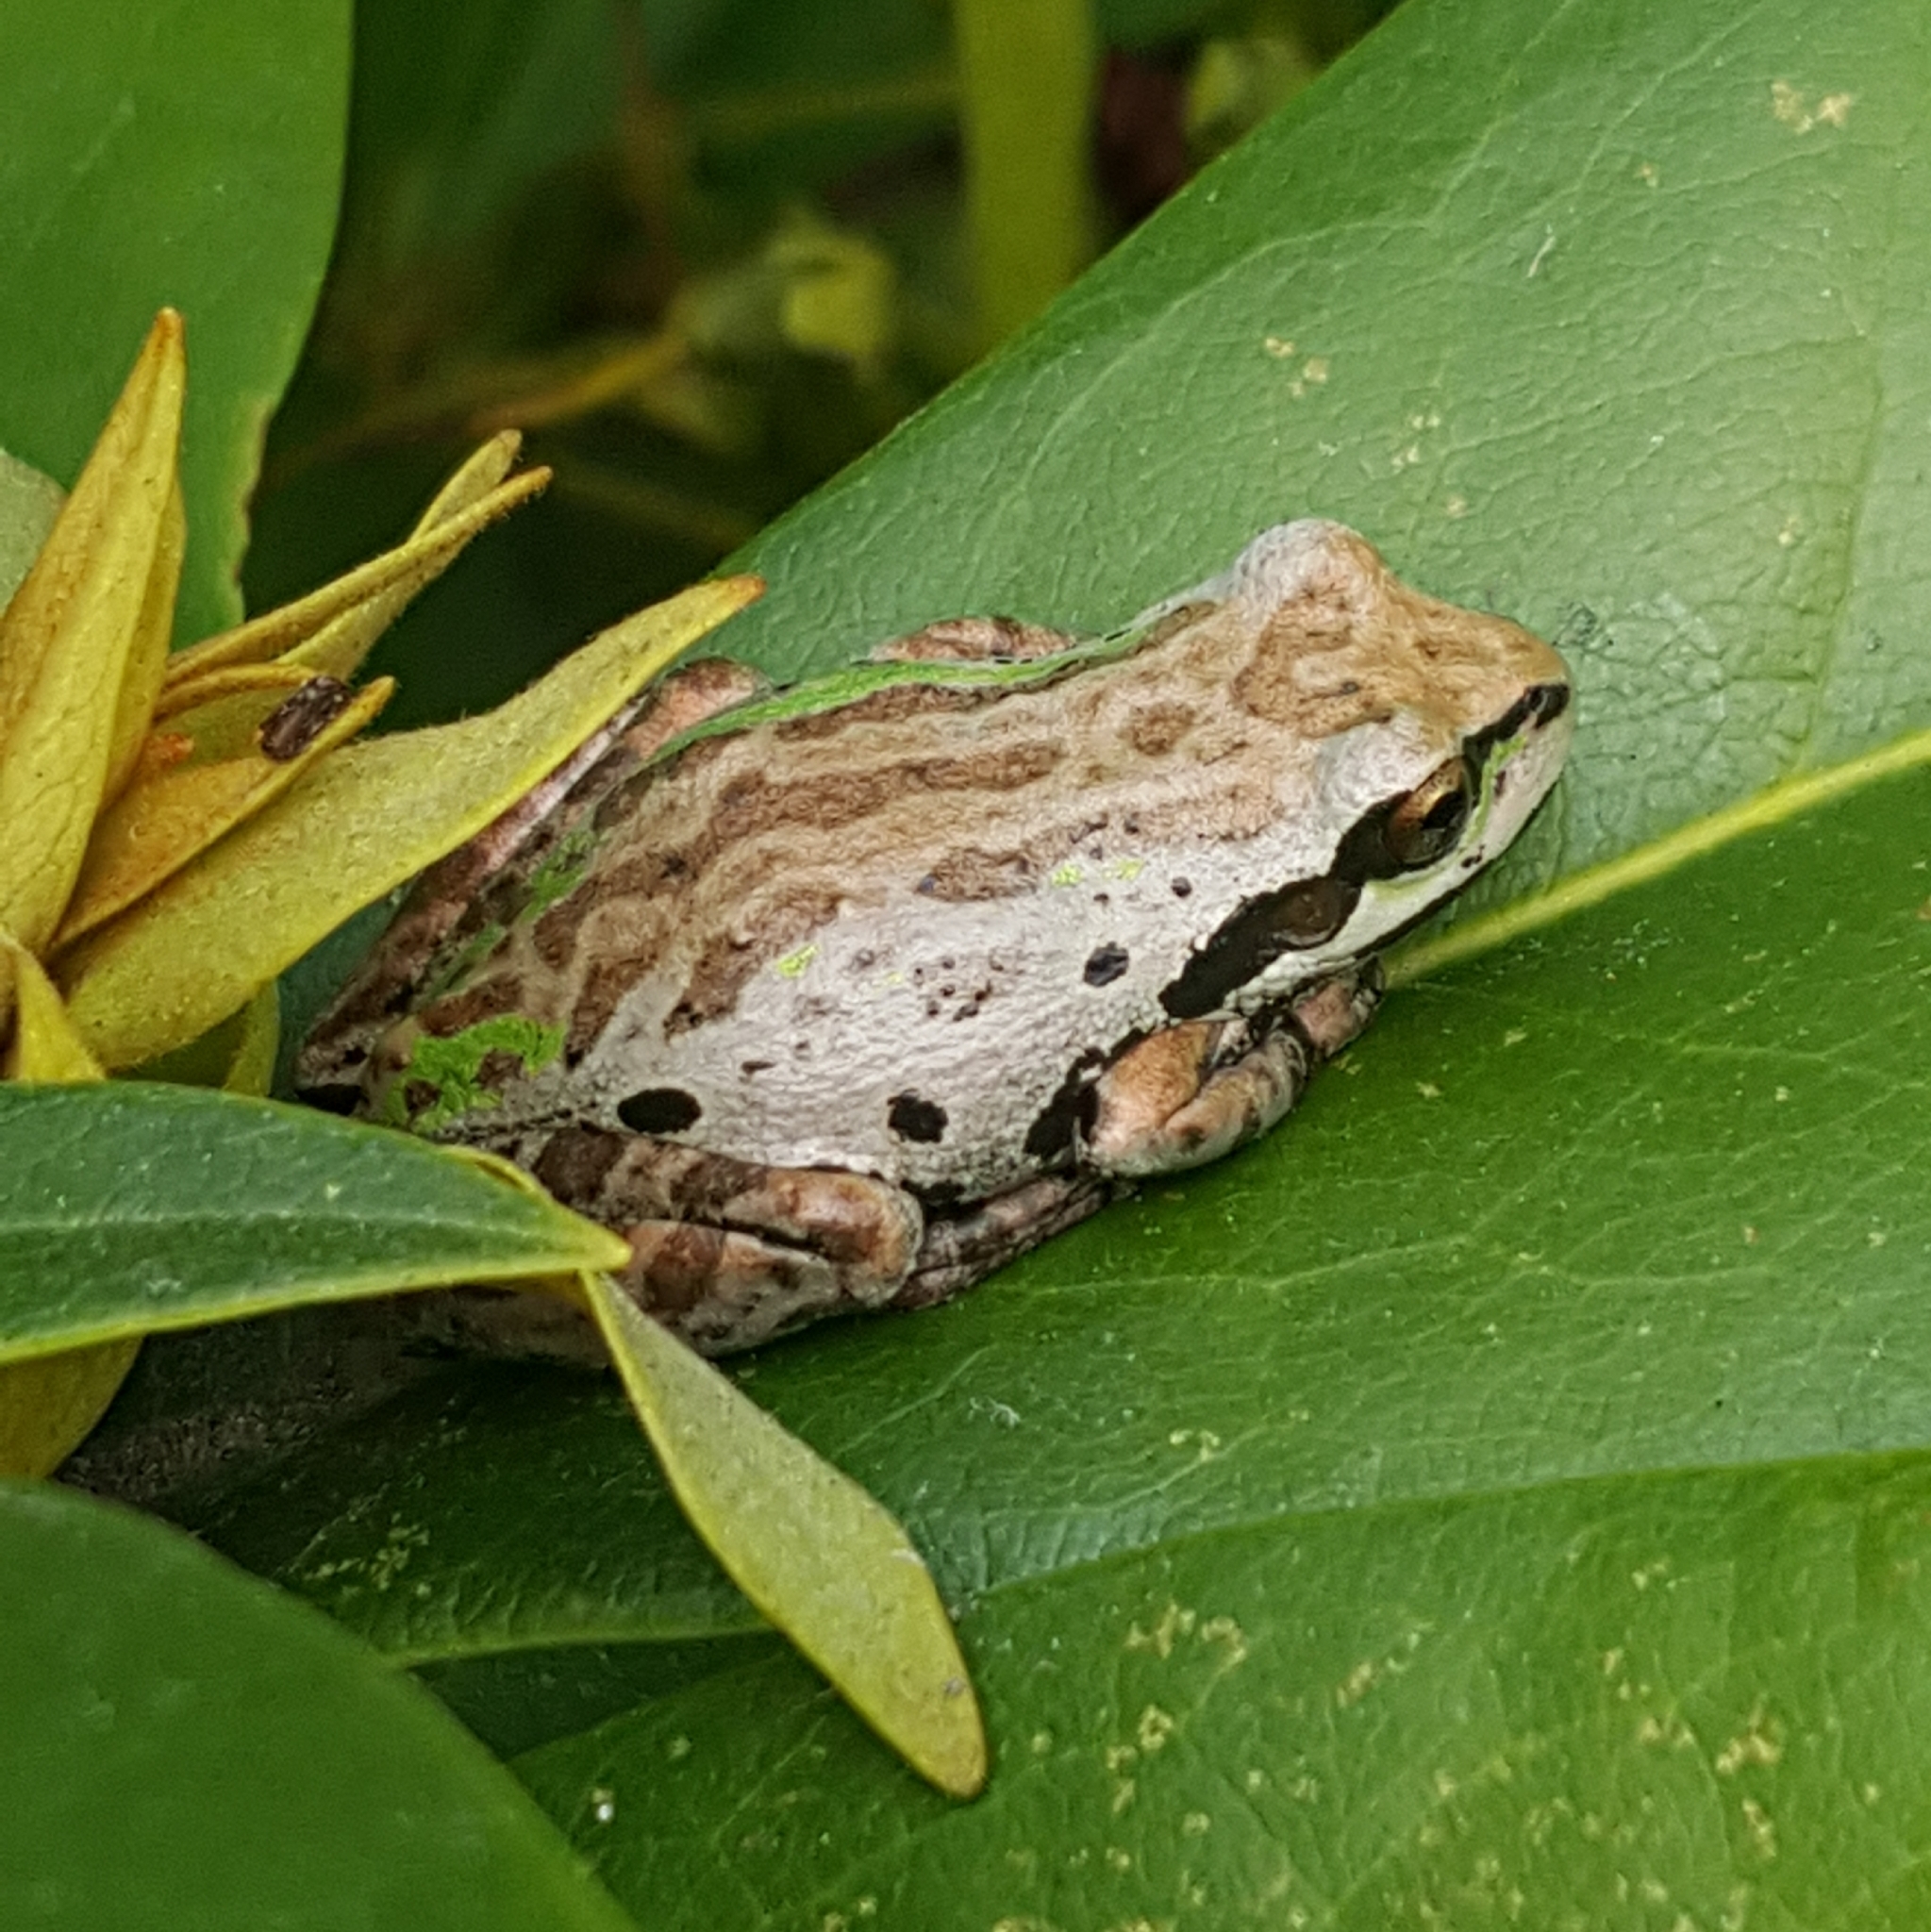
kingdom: Animalia
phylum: Chordata
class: Amphibia
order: Anura
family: Hylidae
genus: Pseudacris
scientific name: Pseudacris regilla
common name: Pacific chorus frog
